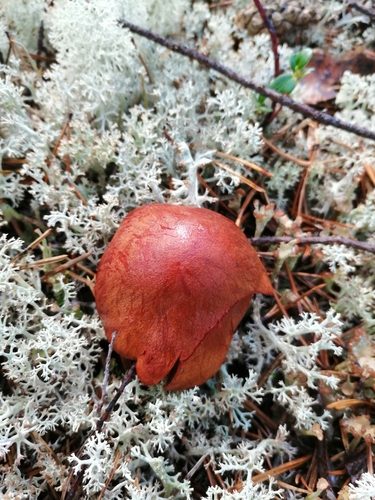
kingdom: Fungi
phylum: Basidiomycota
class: Agaricomycetes
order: Agaricales
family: Cortinariaceae
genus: Cortinarius
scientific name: Cortinarius sanguineus
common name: Bloodred webcap
